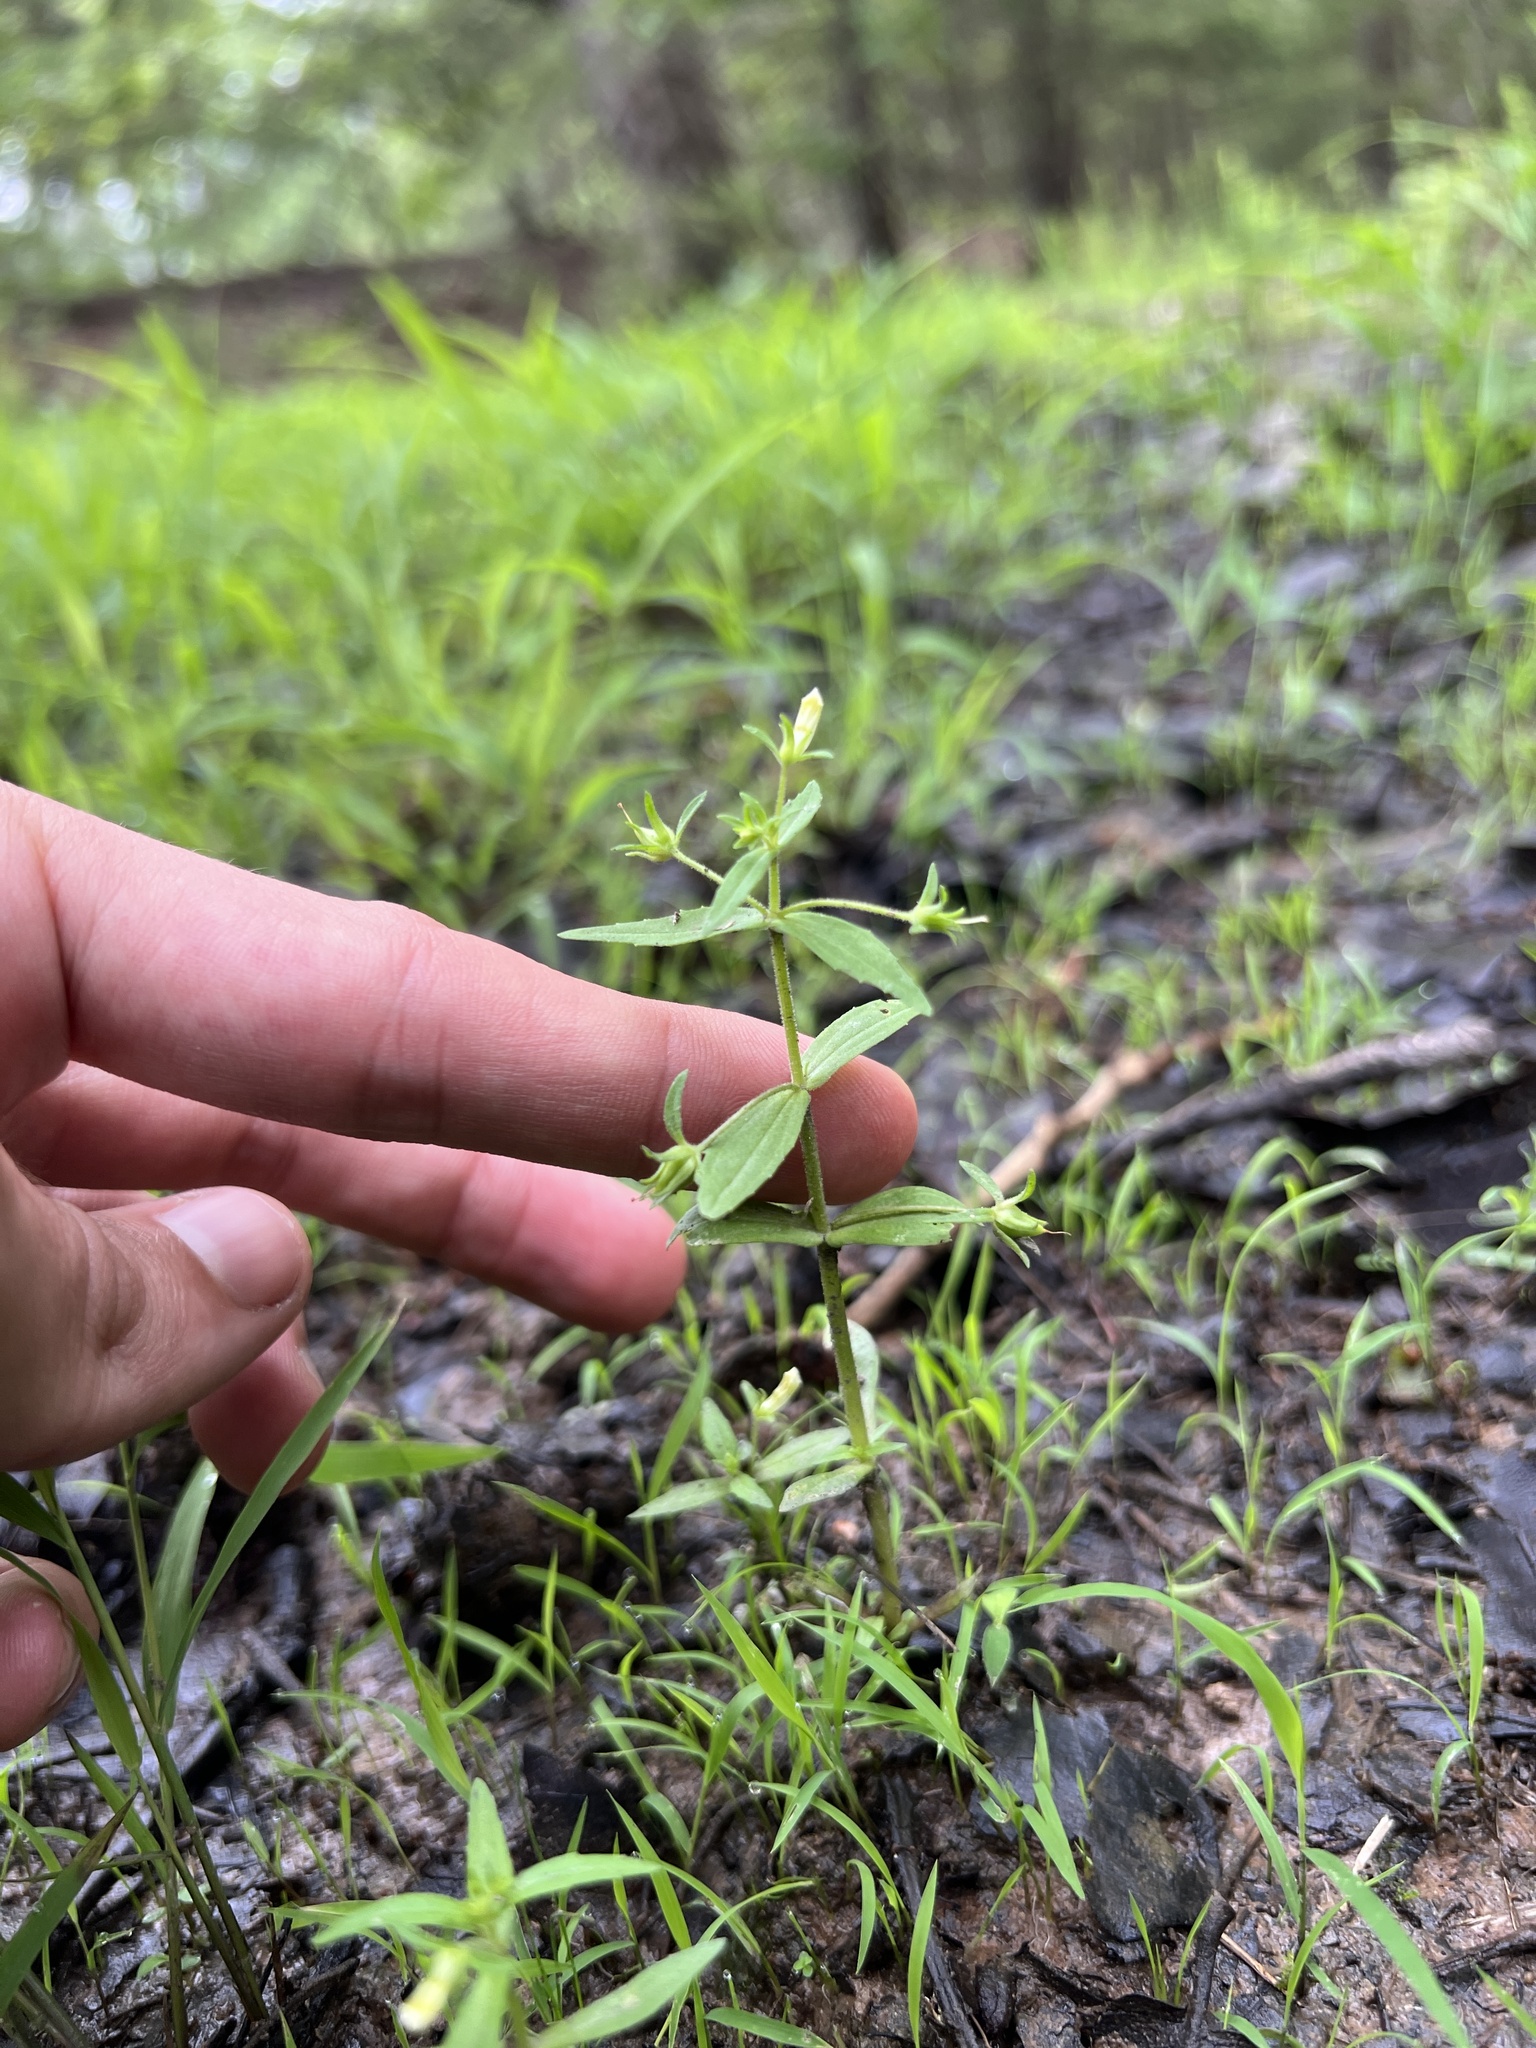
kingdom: Plantae
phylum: Tracheophyta
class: Magnoliopsida
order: Lamiales
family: Plantaginaceae
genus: Gratiola
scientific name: Gratiola neglecta
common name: American hedge-hyssop
